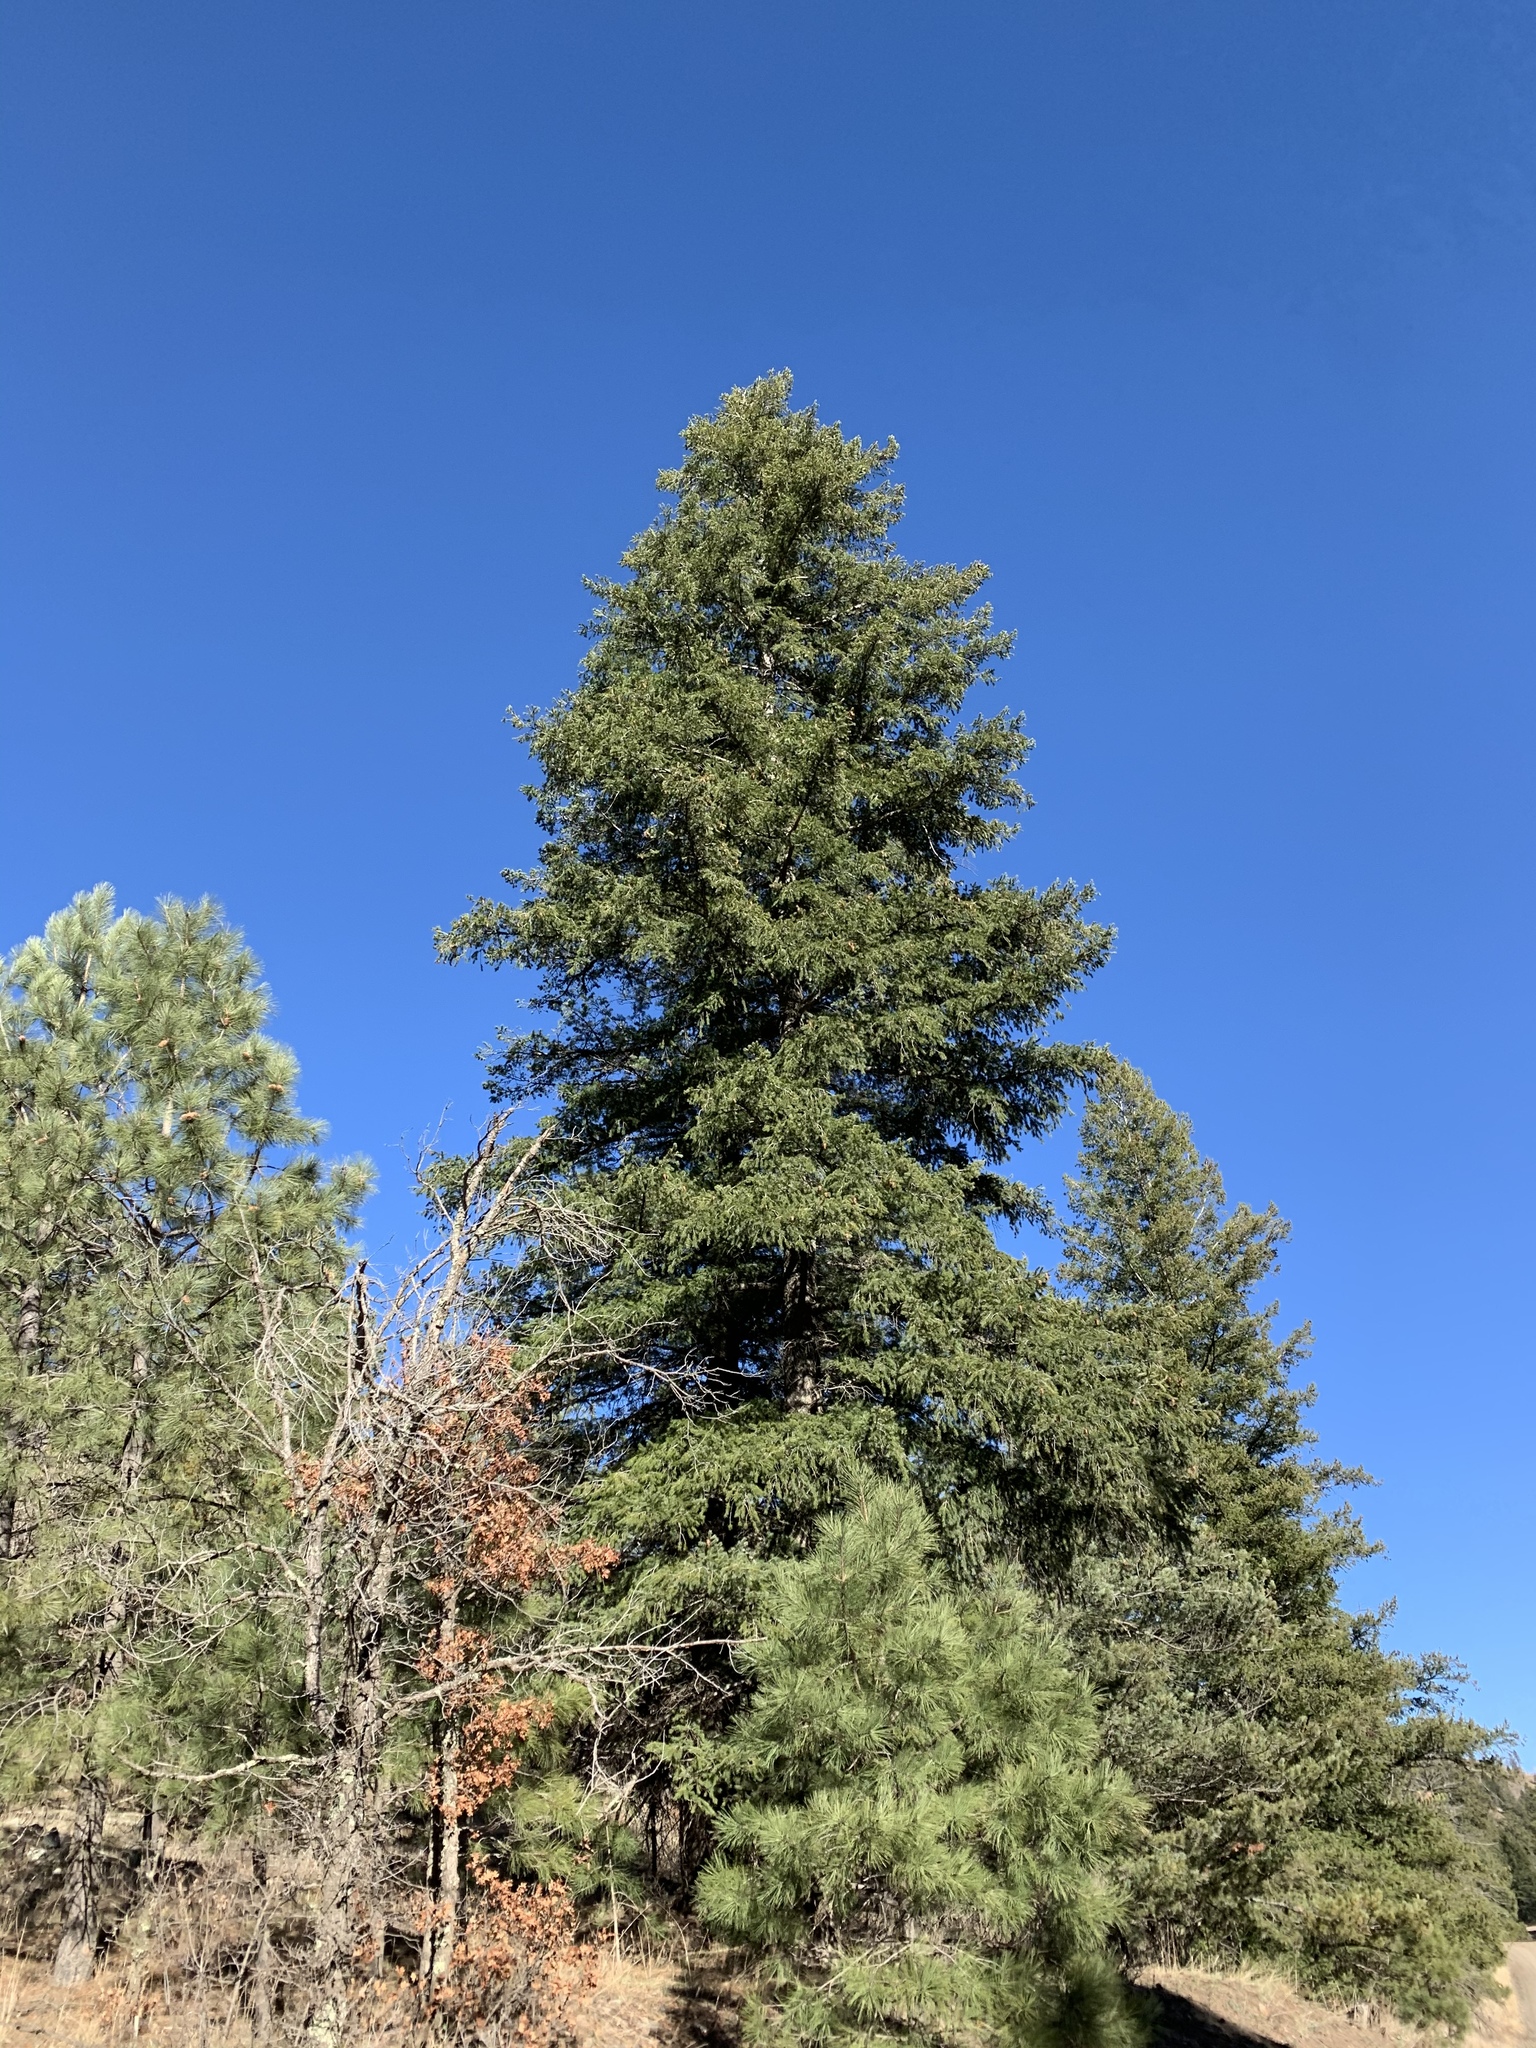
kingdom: Plantae
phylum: Tracheophyta
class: Pinopsida
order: Pinales
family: Pinaceae
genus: Pseudotsuga
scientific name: Pseudotsuga menziesii
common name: Douglas fir
